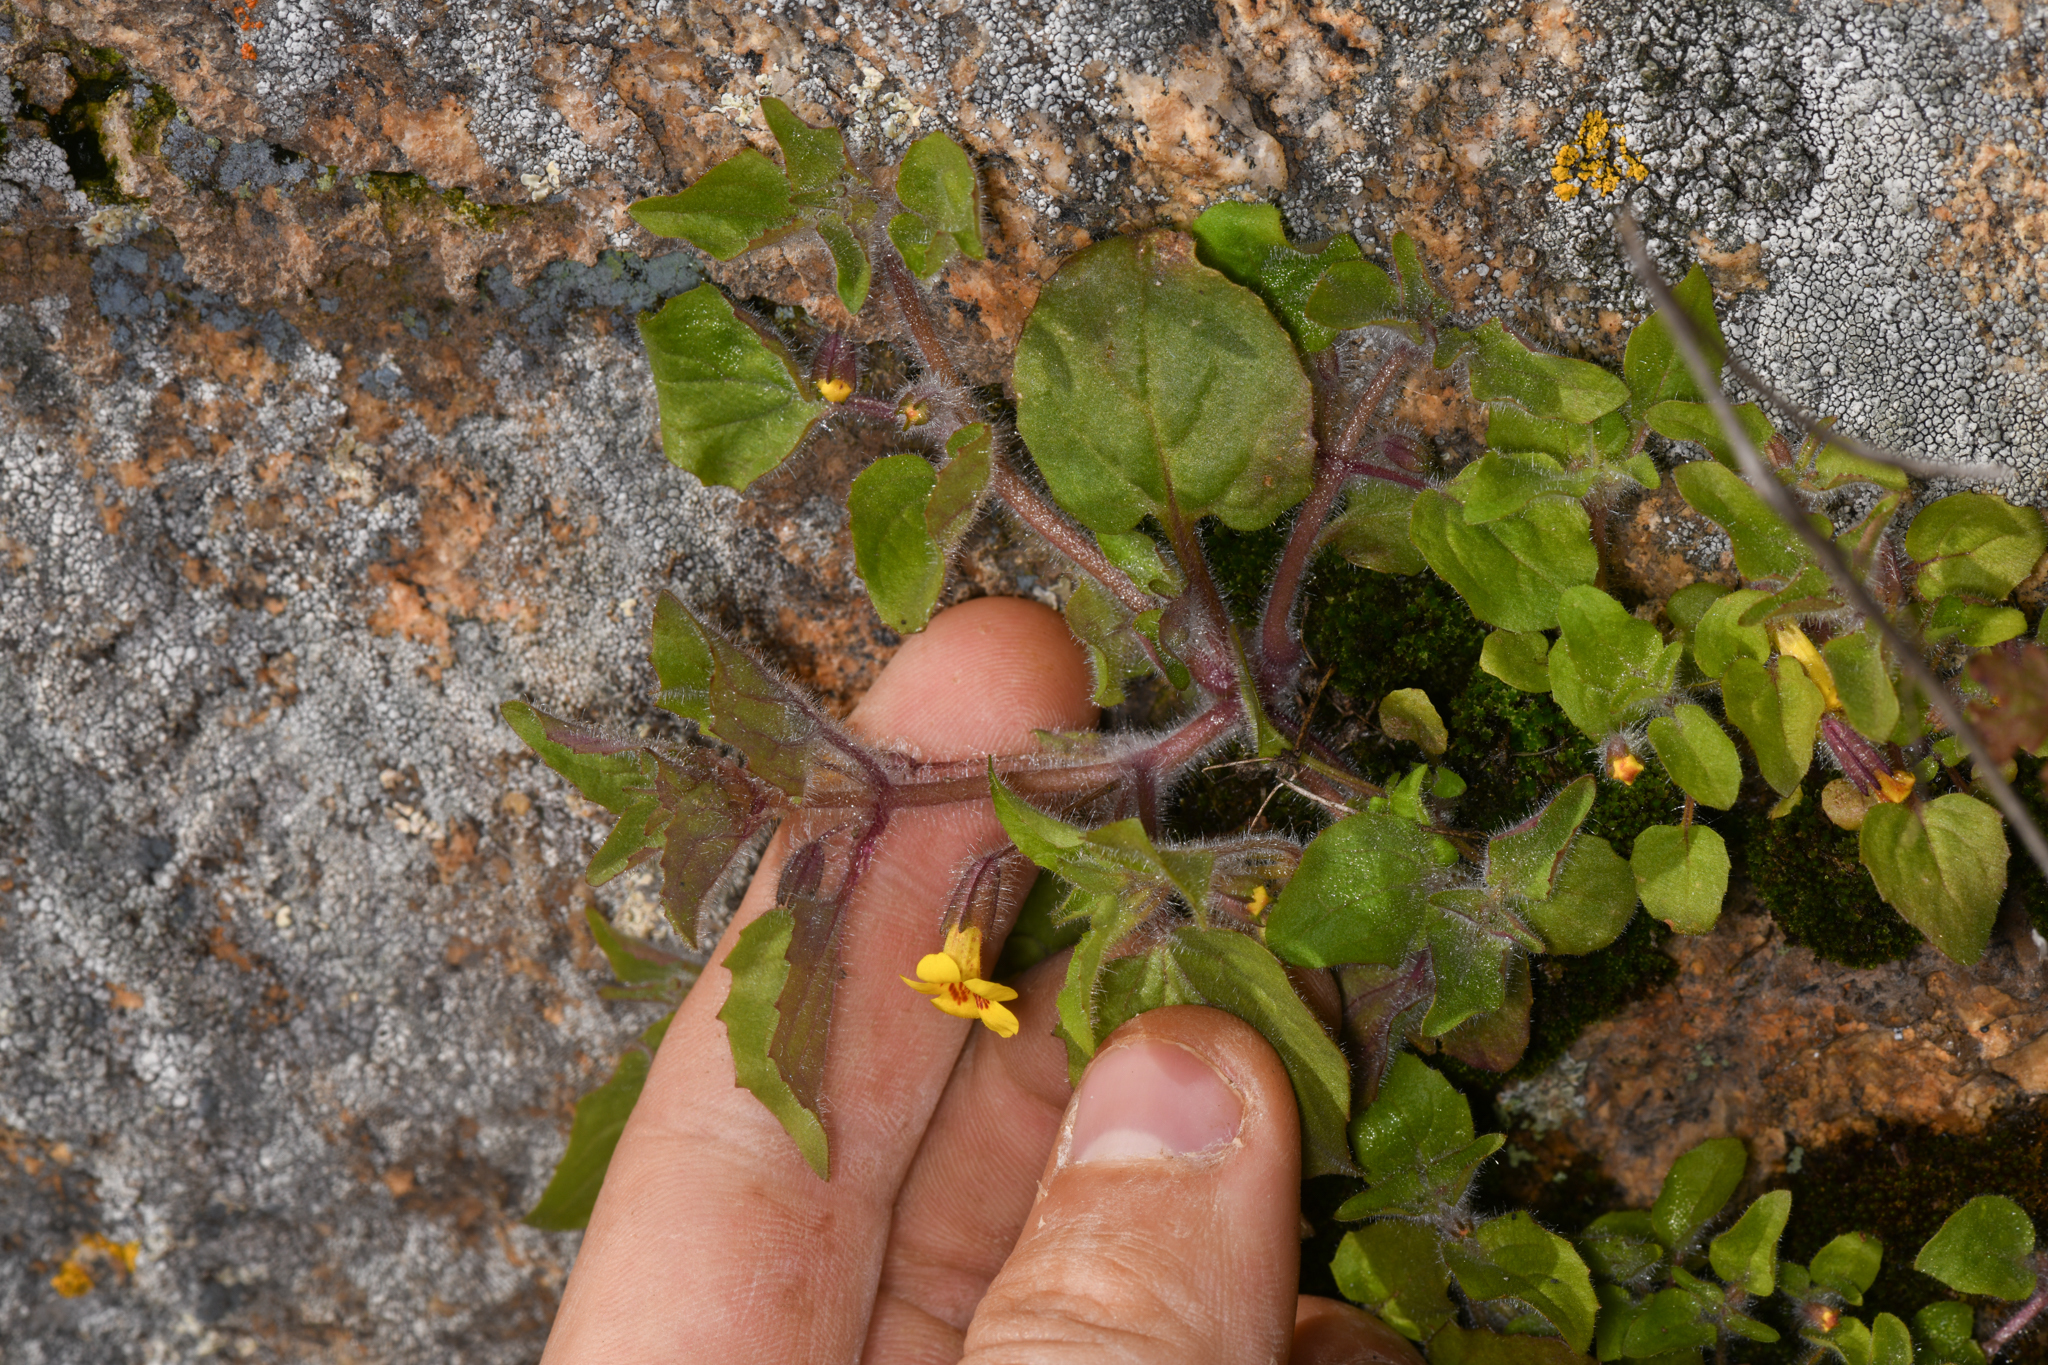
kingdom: Plantae
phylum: Tracheophyta
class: Magnoliopsida
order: Lamiales
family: Phrymaceae
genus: Erythranthe
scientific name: Erythranthe geniculata
